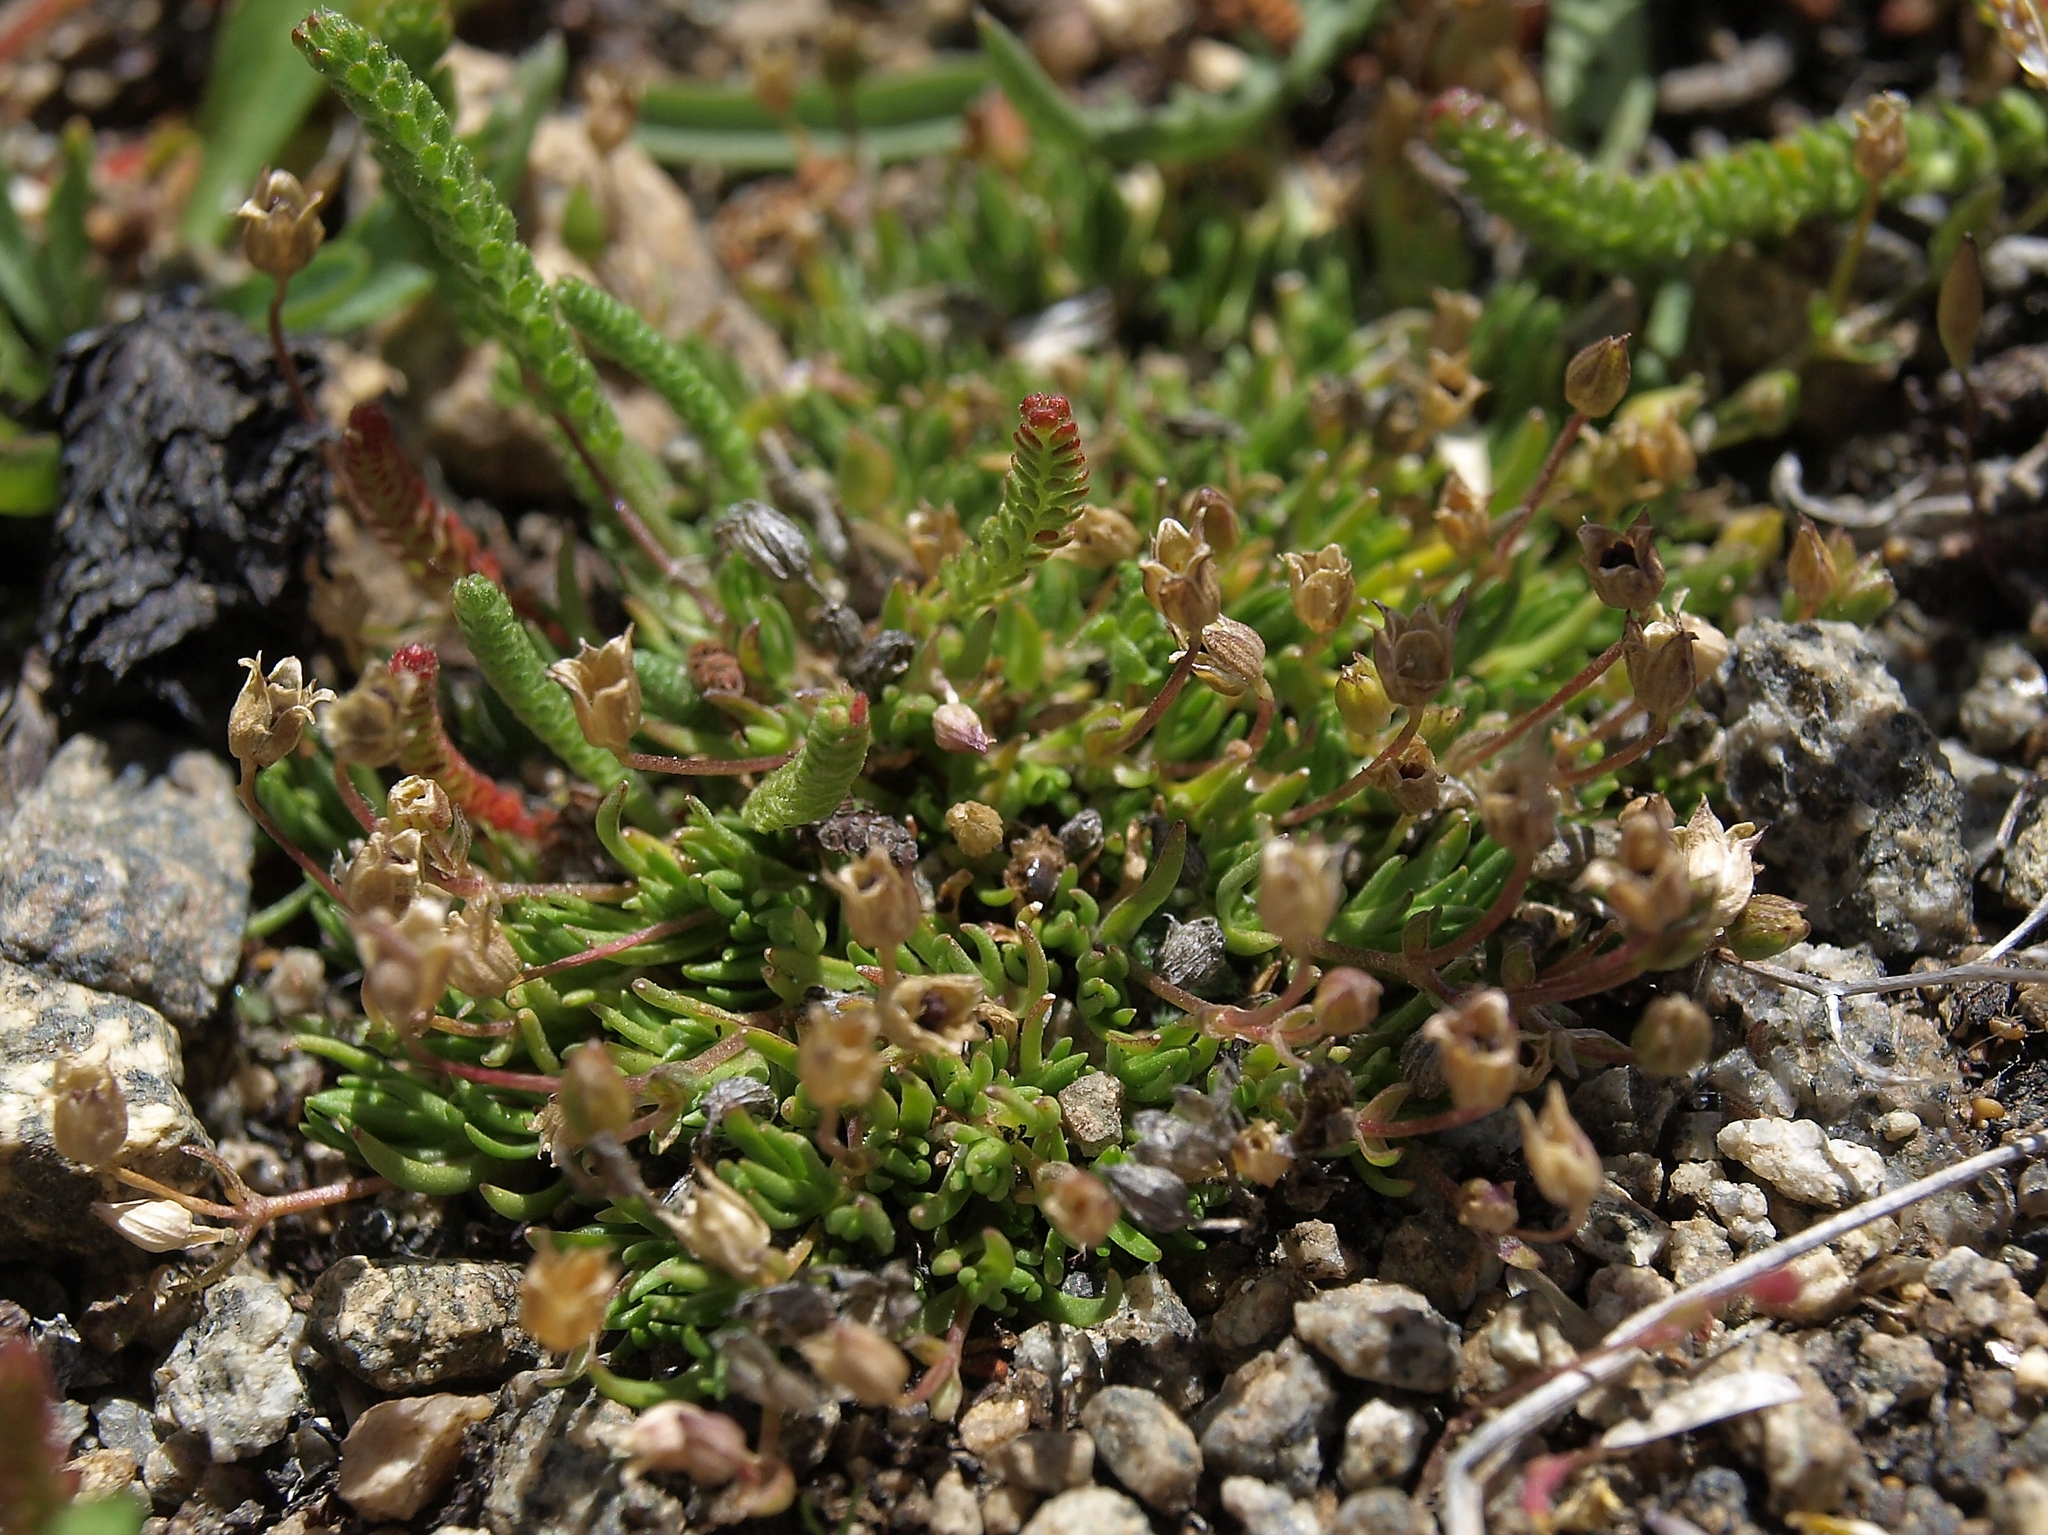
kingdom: Plantae
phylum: Tracheophyta
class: Magnoliopsida
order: Caryophyllales
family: Caryophyllaceae
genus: Sabulina
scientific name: Sabulina stricta
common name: Bog sandwort
